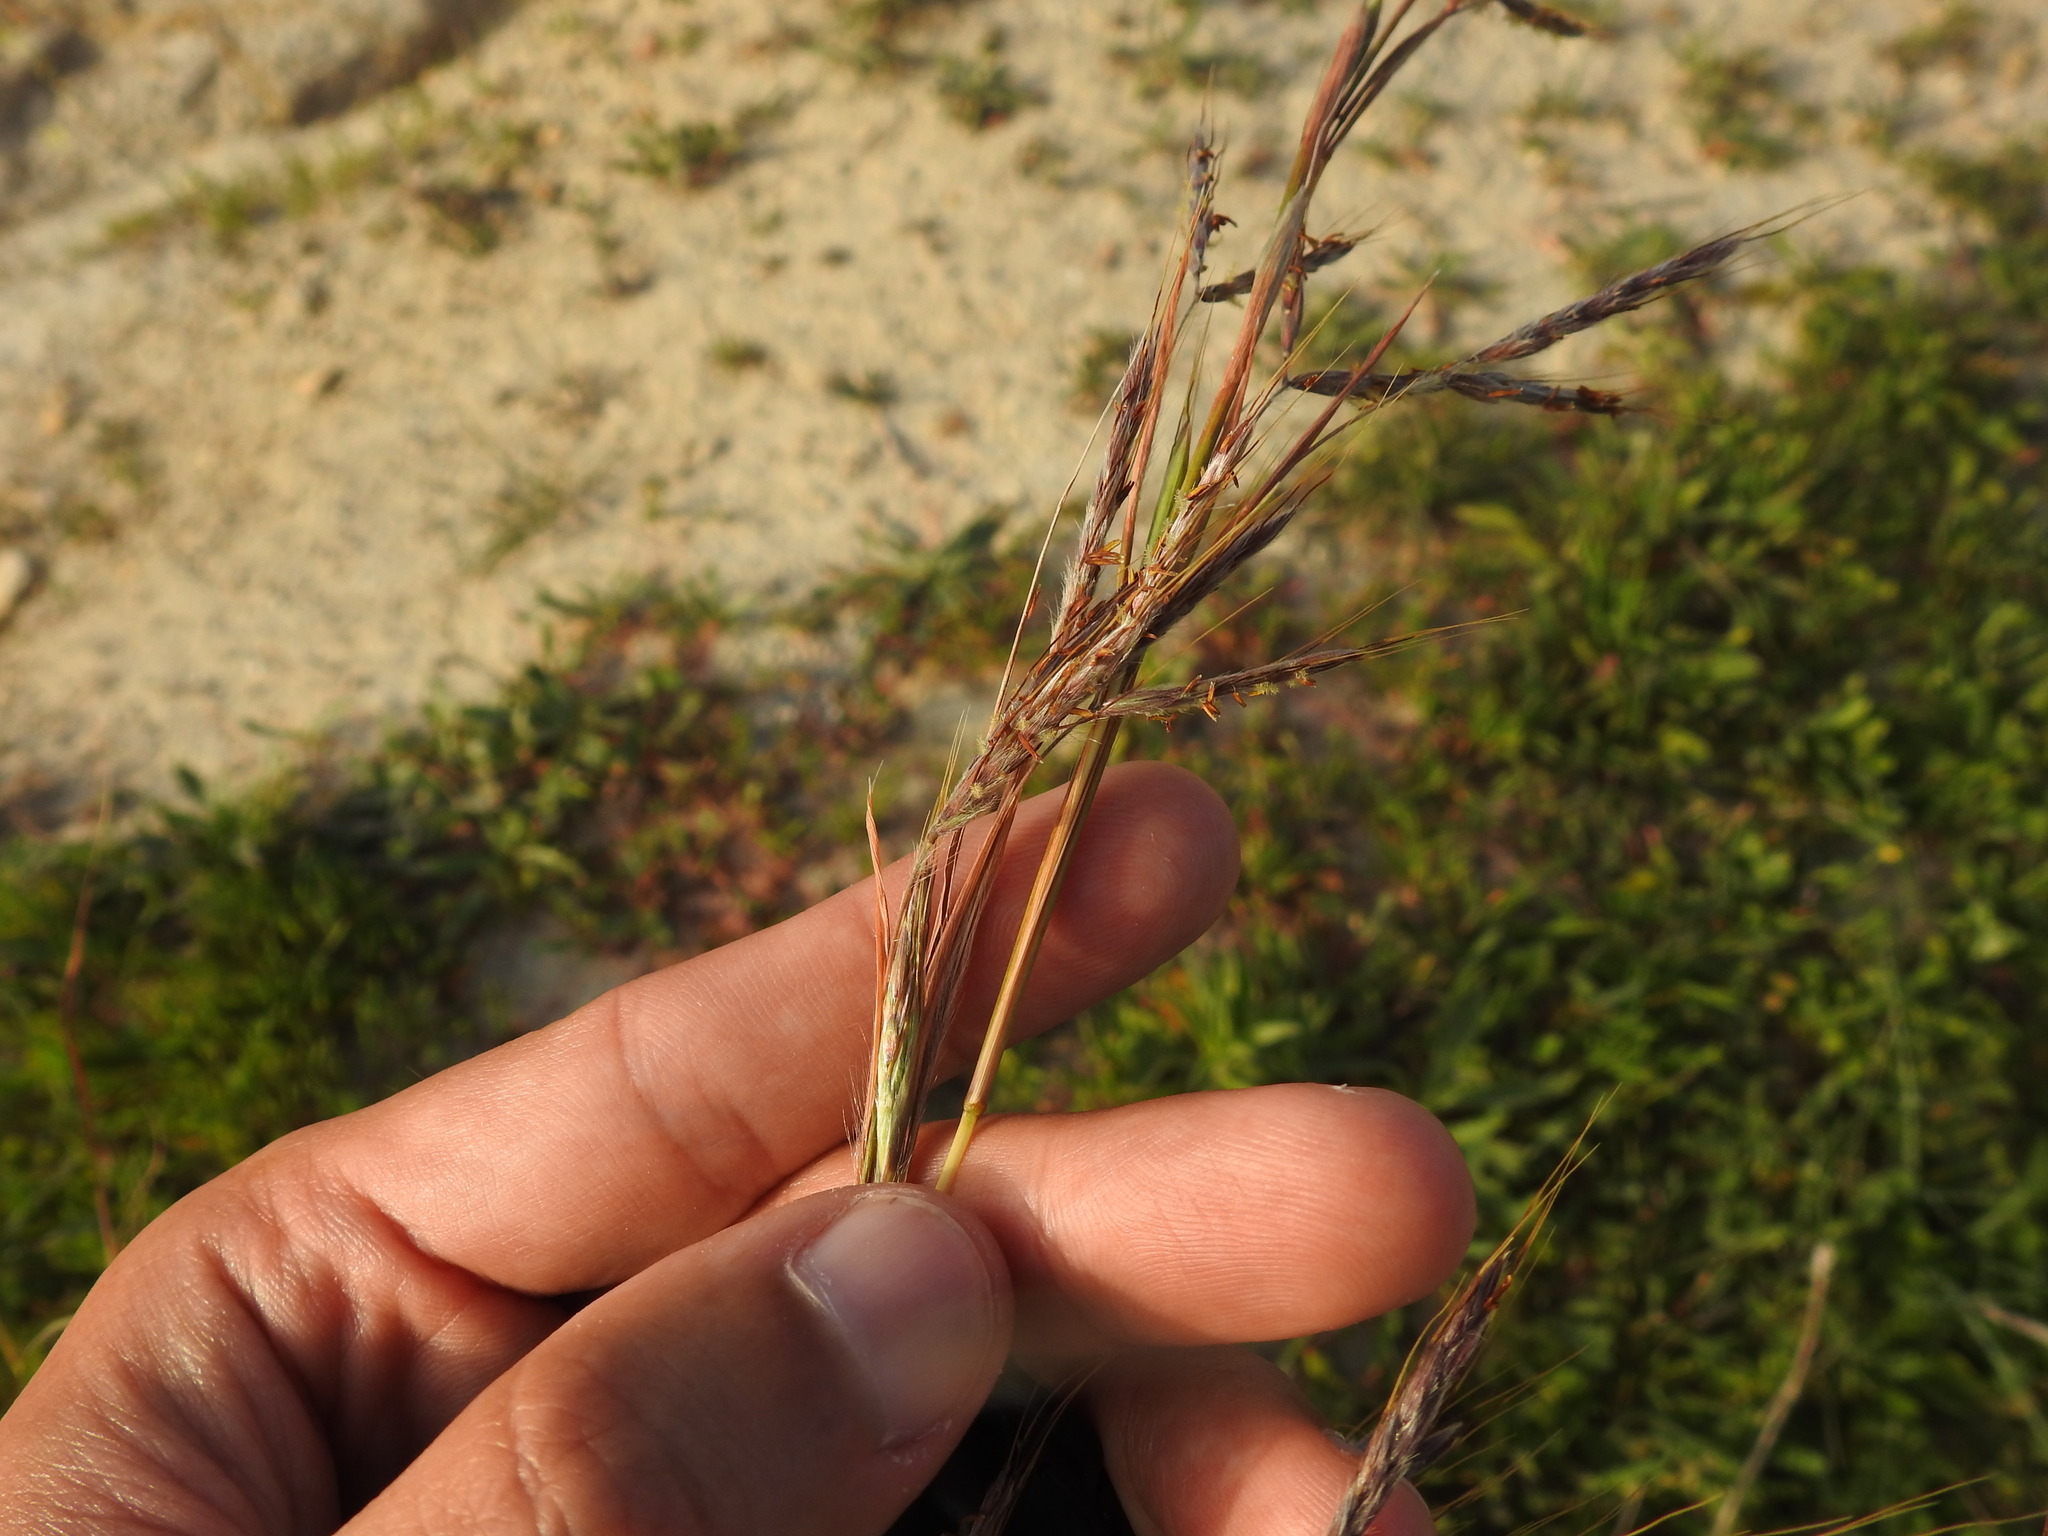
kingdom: Plantae
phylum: Tracheophyta
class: Liliopsida
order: Poales
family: Poaceae
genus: Hyparrhenia
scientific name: Hyparrhenia hirta
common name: Thatching grass
